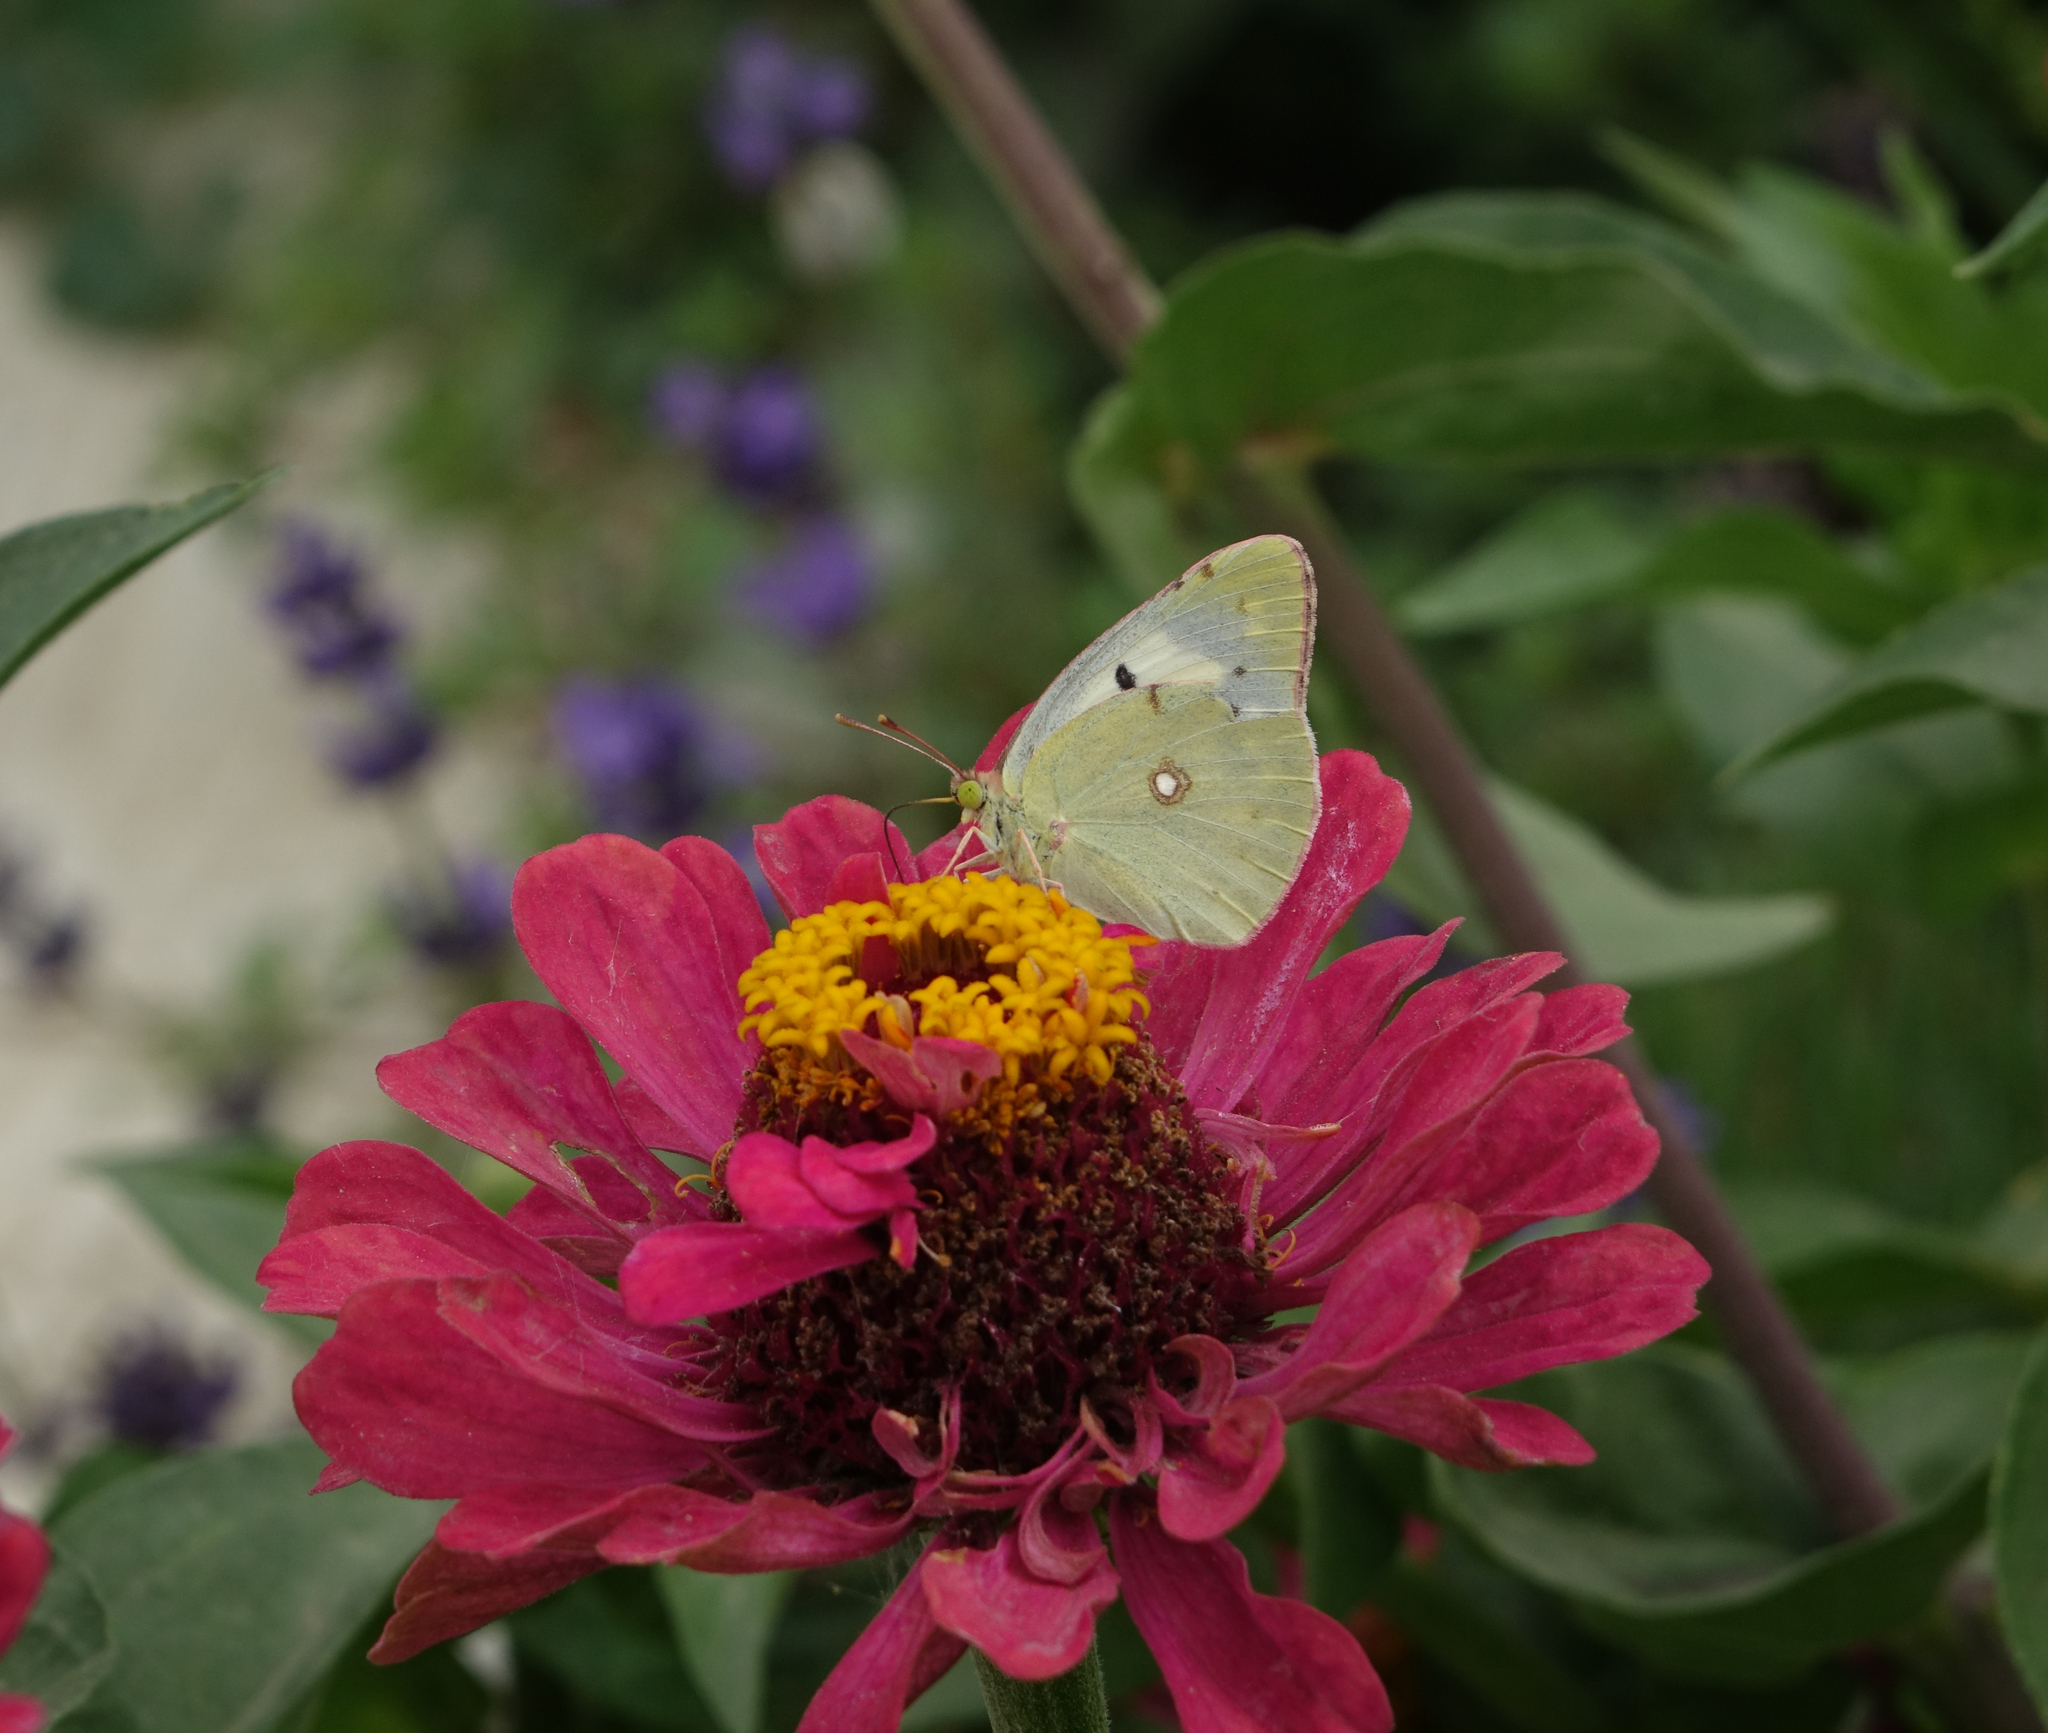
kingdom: Animalia
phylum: Arthropoda
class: Insecta
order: Lepidoptera
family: Pieridae
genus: Colias
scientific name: Colias croceus
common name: Clouded yellow
